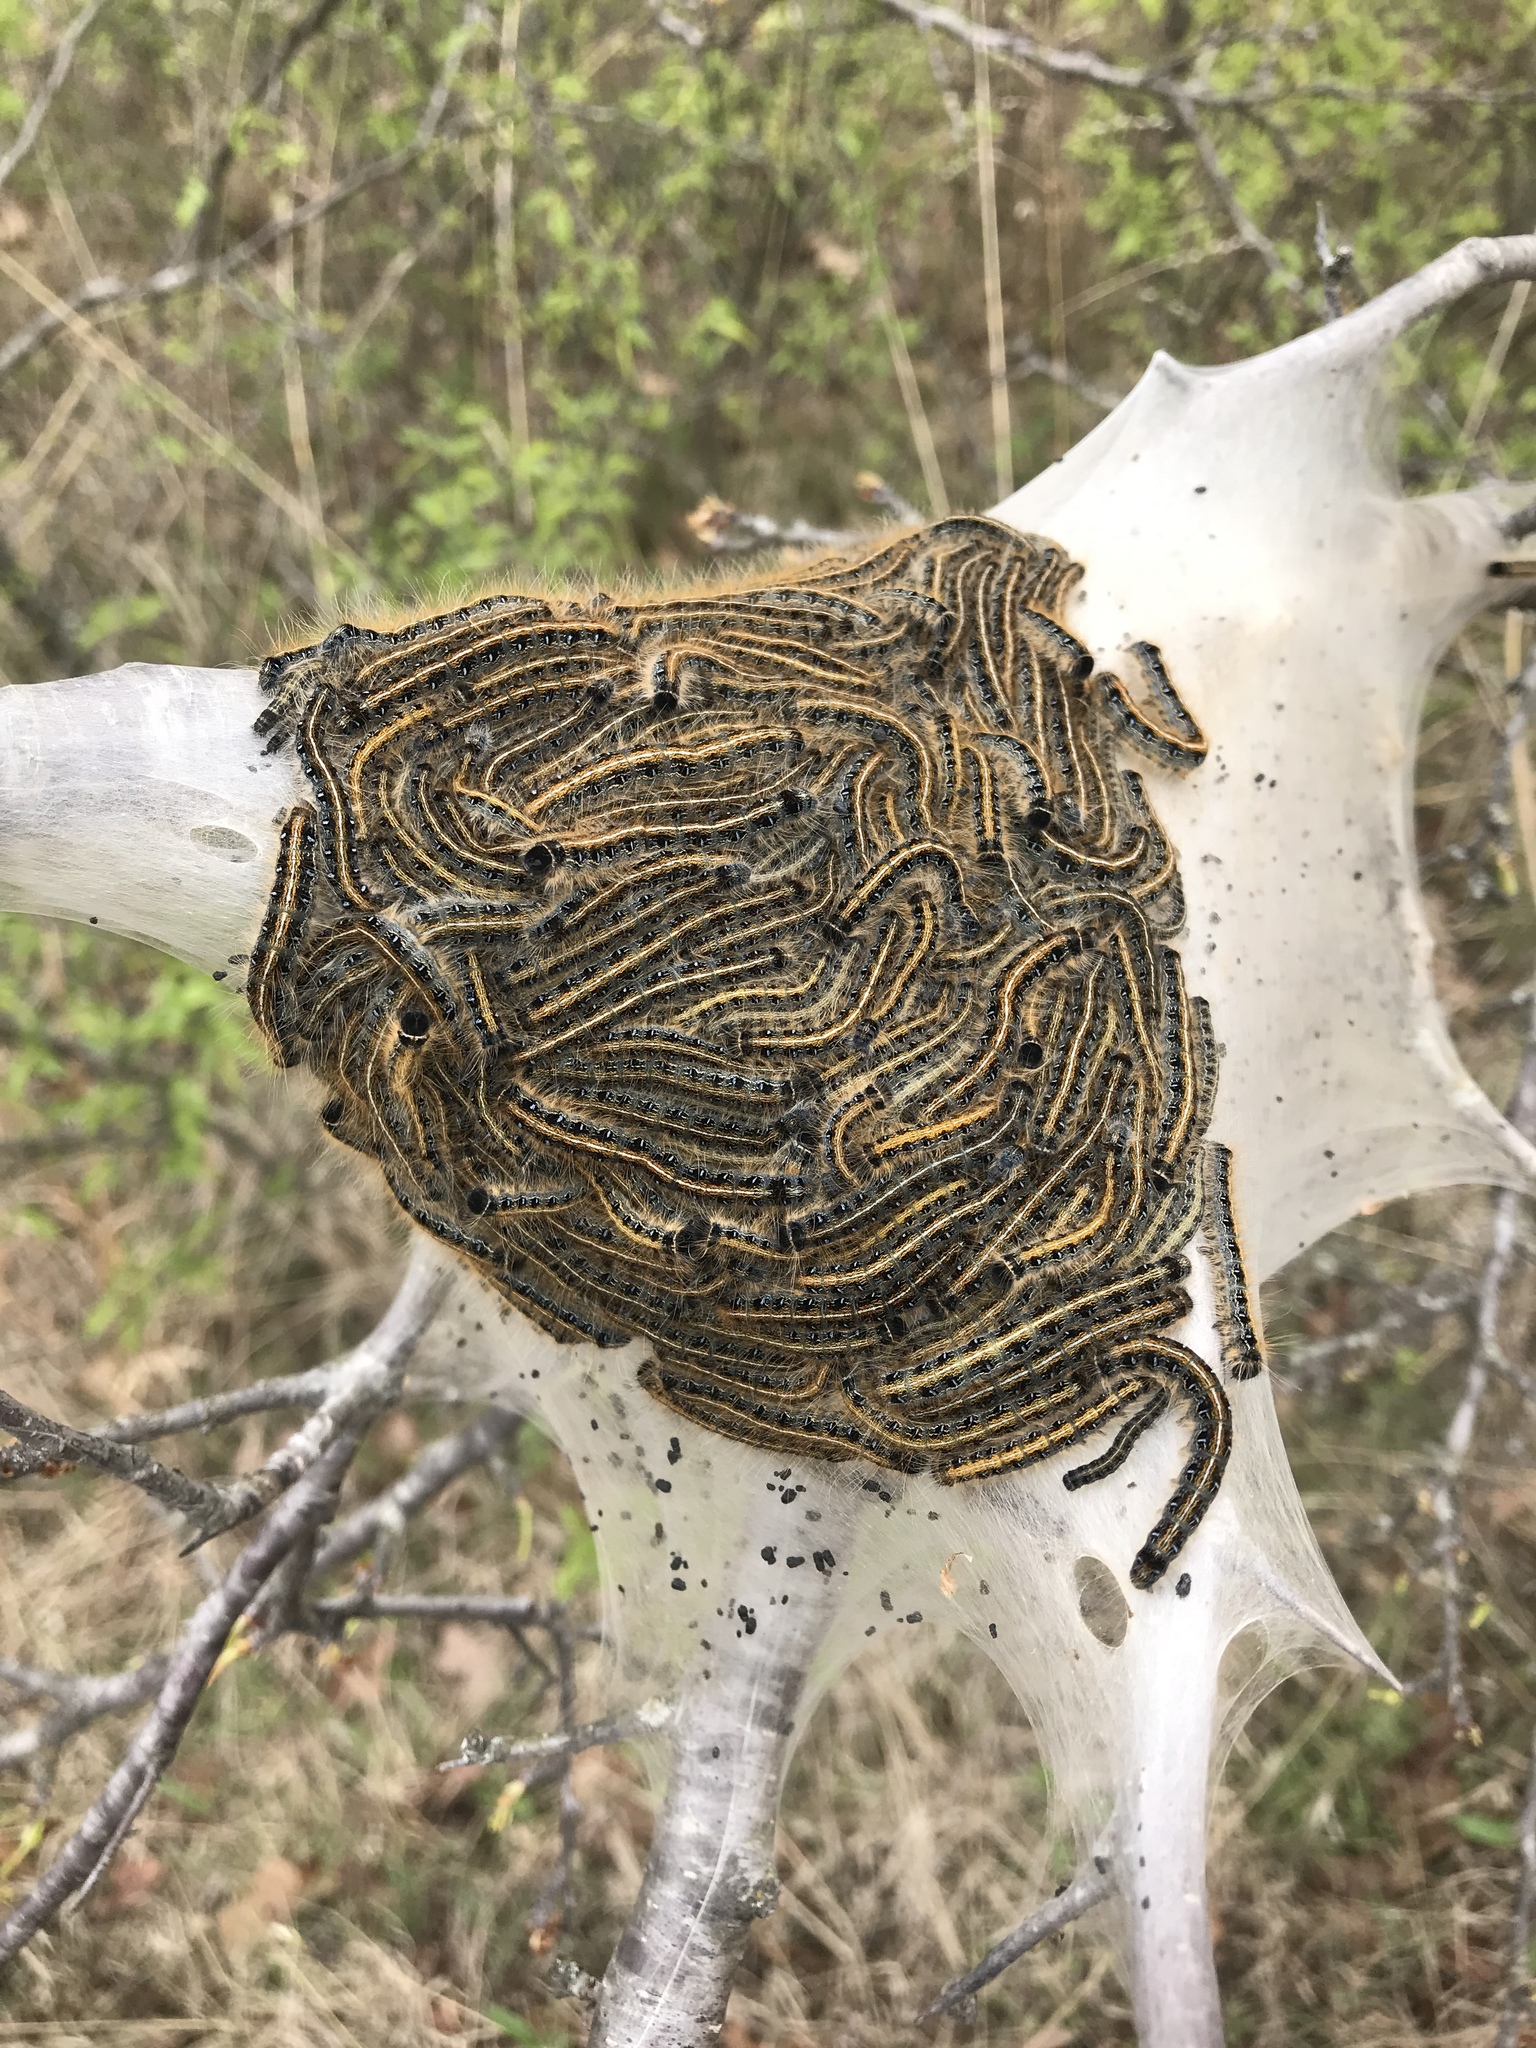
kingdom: Animalia
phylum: Arthropoda
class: Insecta
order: Lepidoptera
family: Lasiocampidae
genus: Malacosoma
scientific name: Malacosoma americana
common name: Eastern tent caterpillar moth
